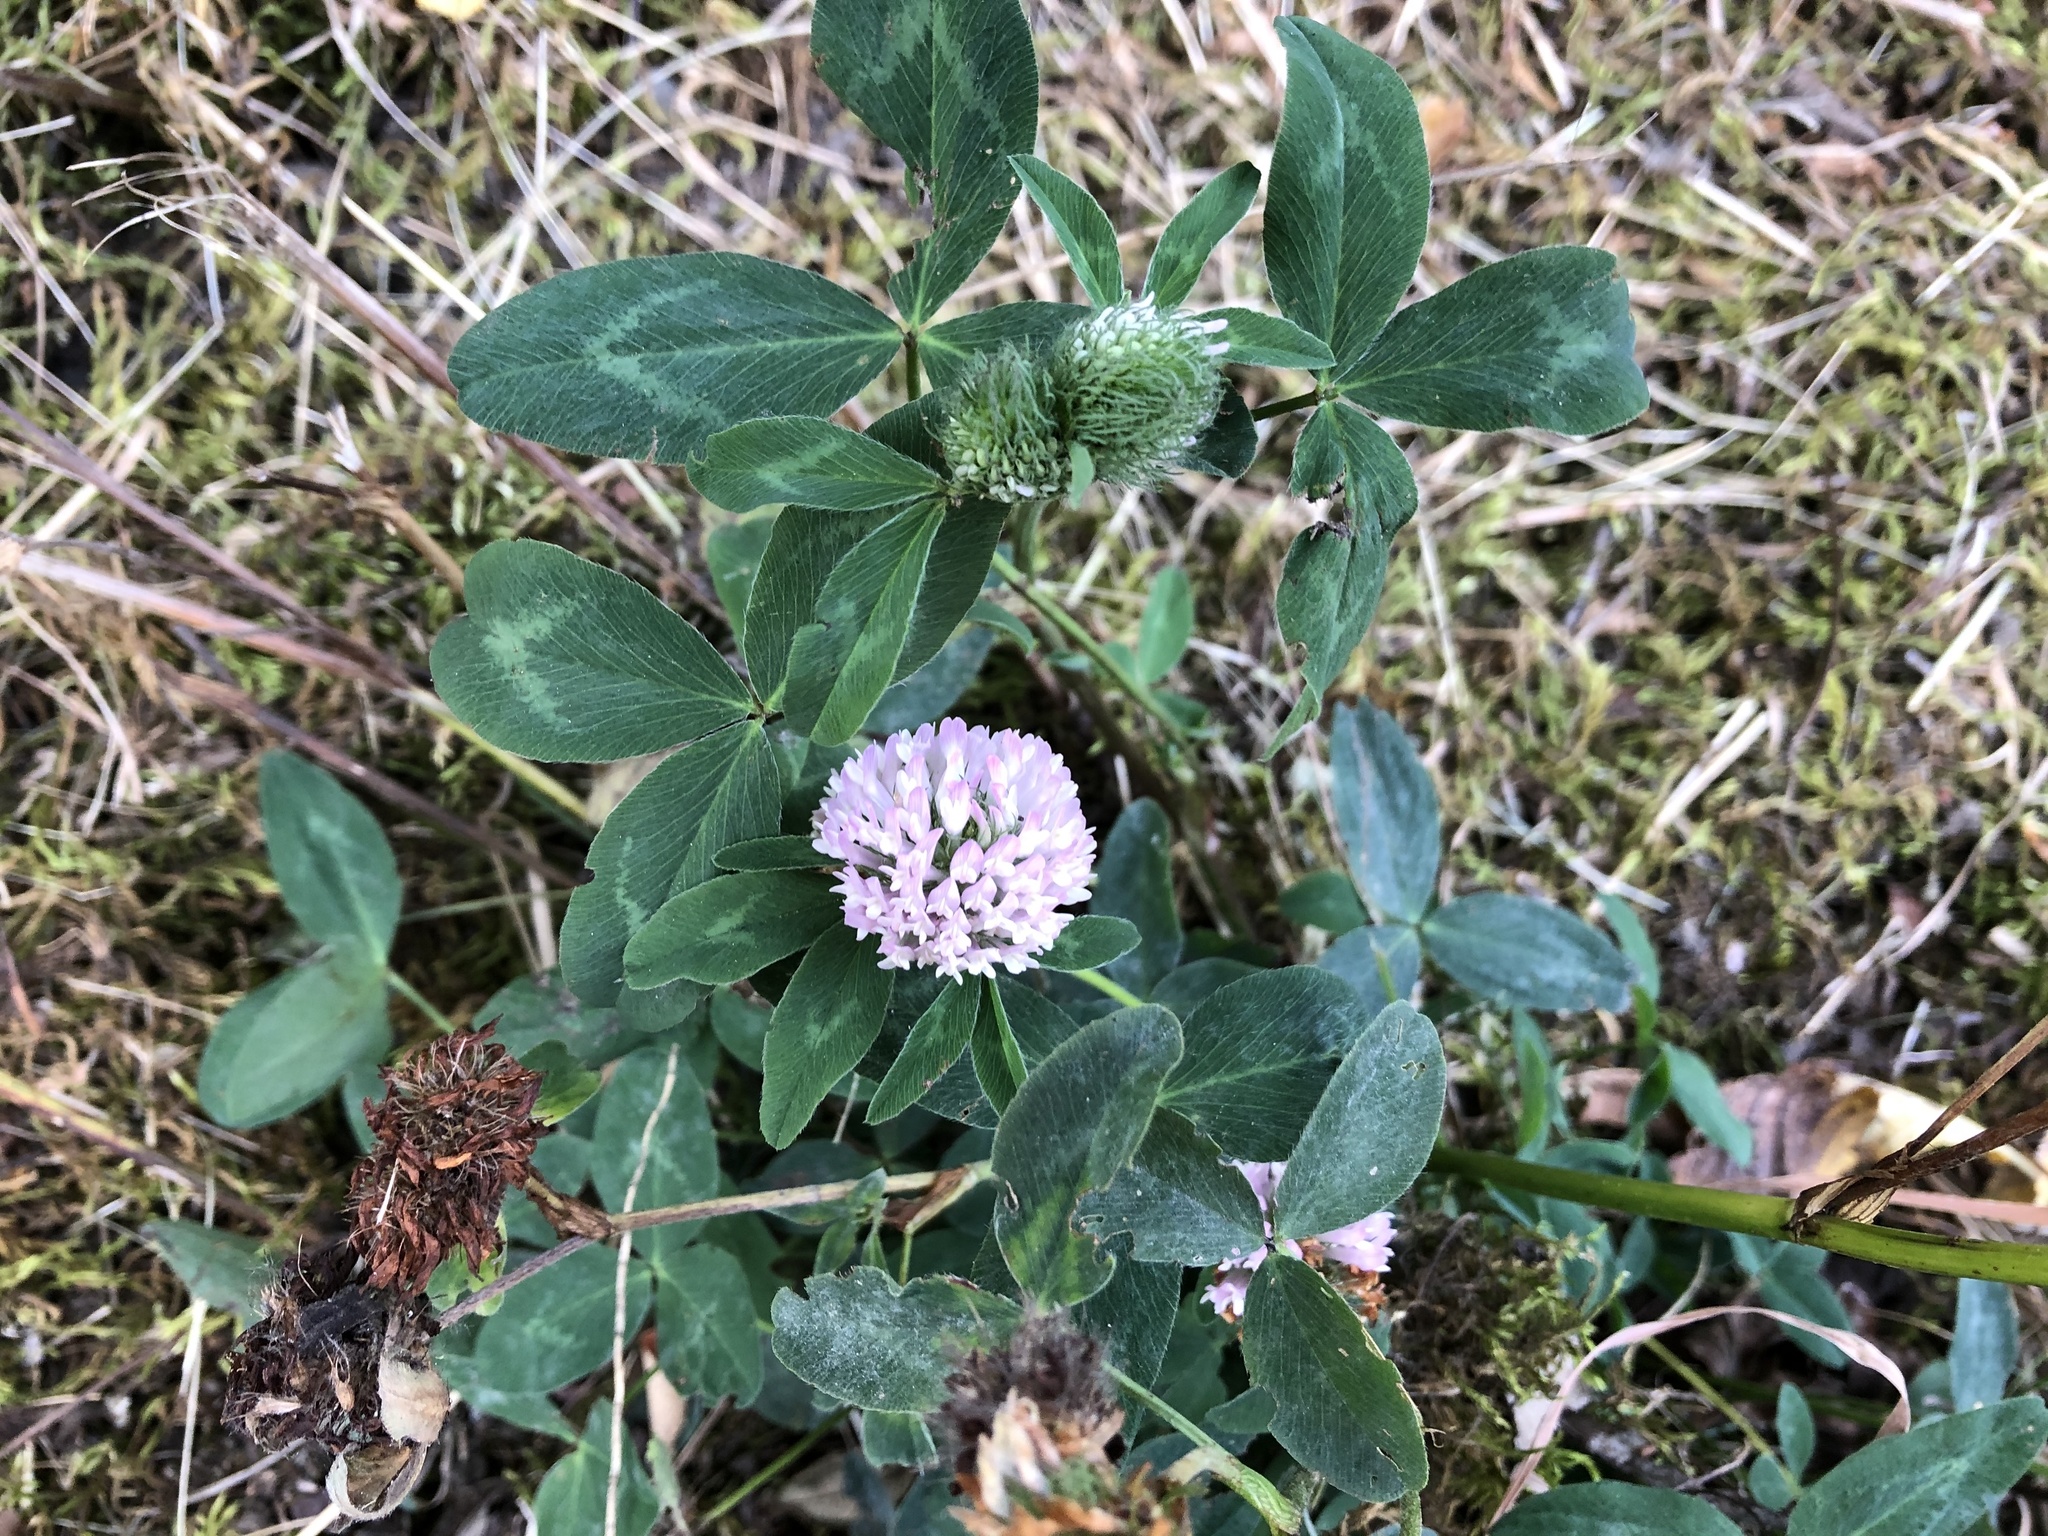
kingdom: Plantae
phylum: Tracheophyta
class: Magnoliopsida
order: Fabales
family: Fabaceae
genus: Trifolium
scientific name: Trifolium pratense
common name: Red clover
